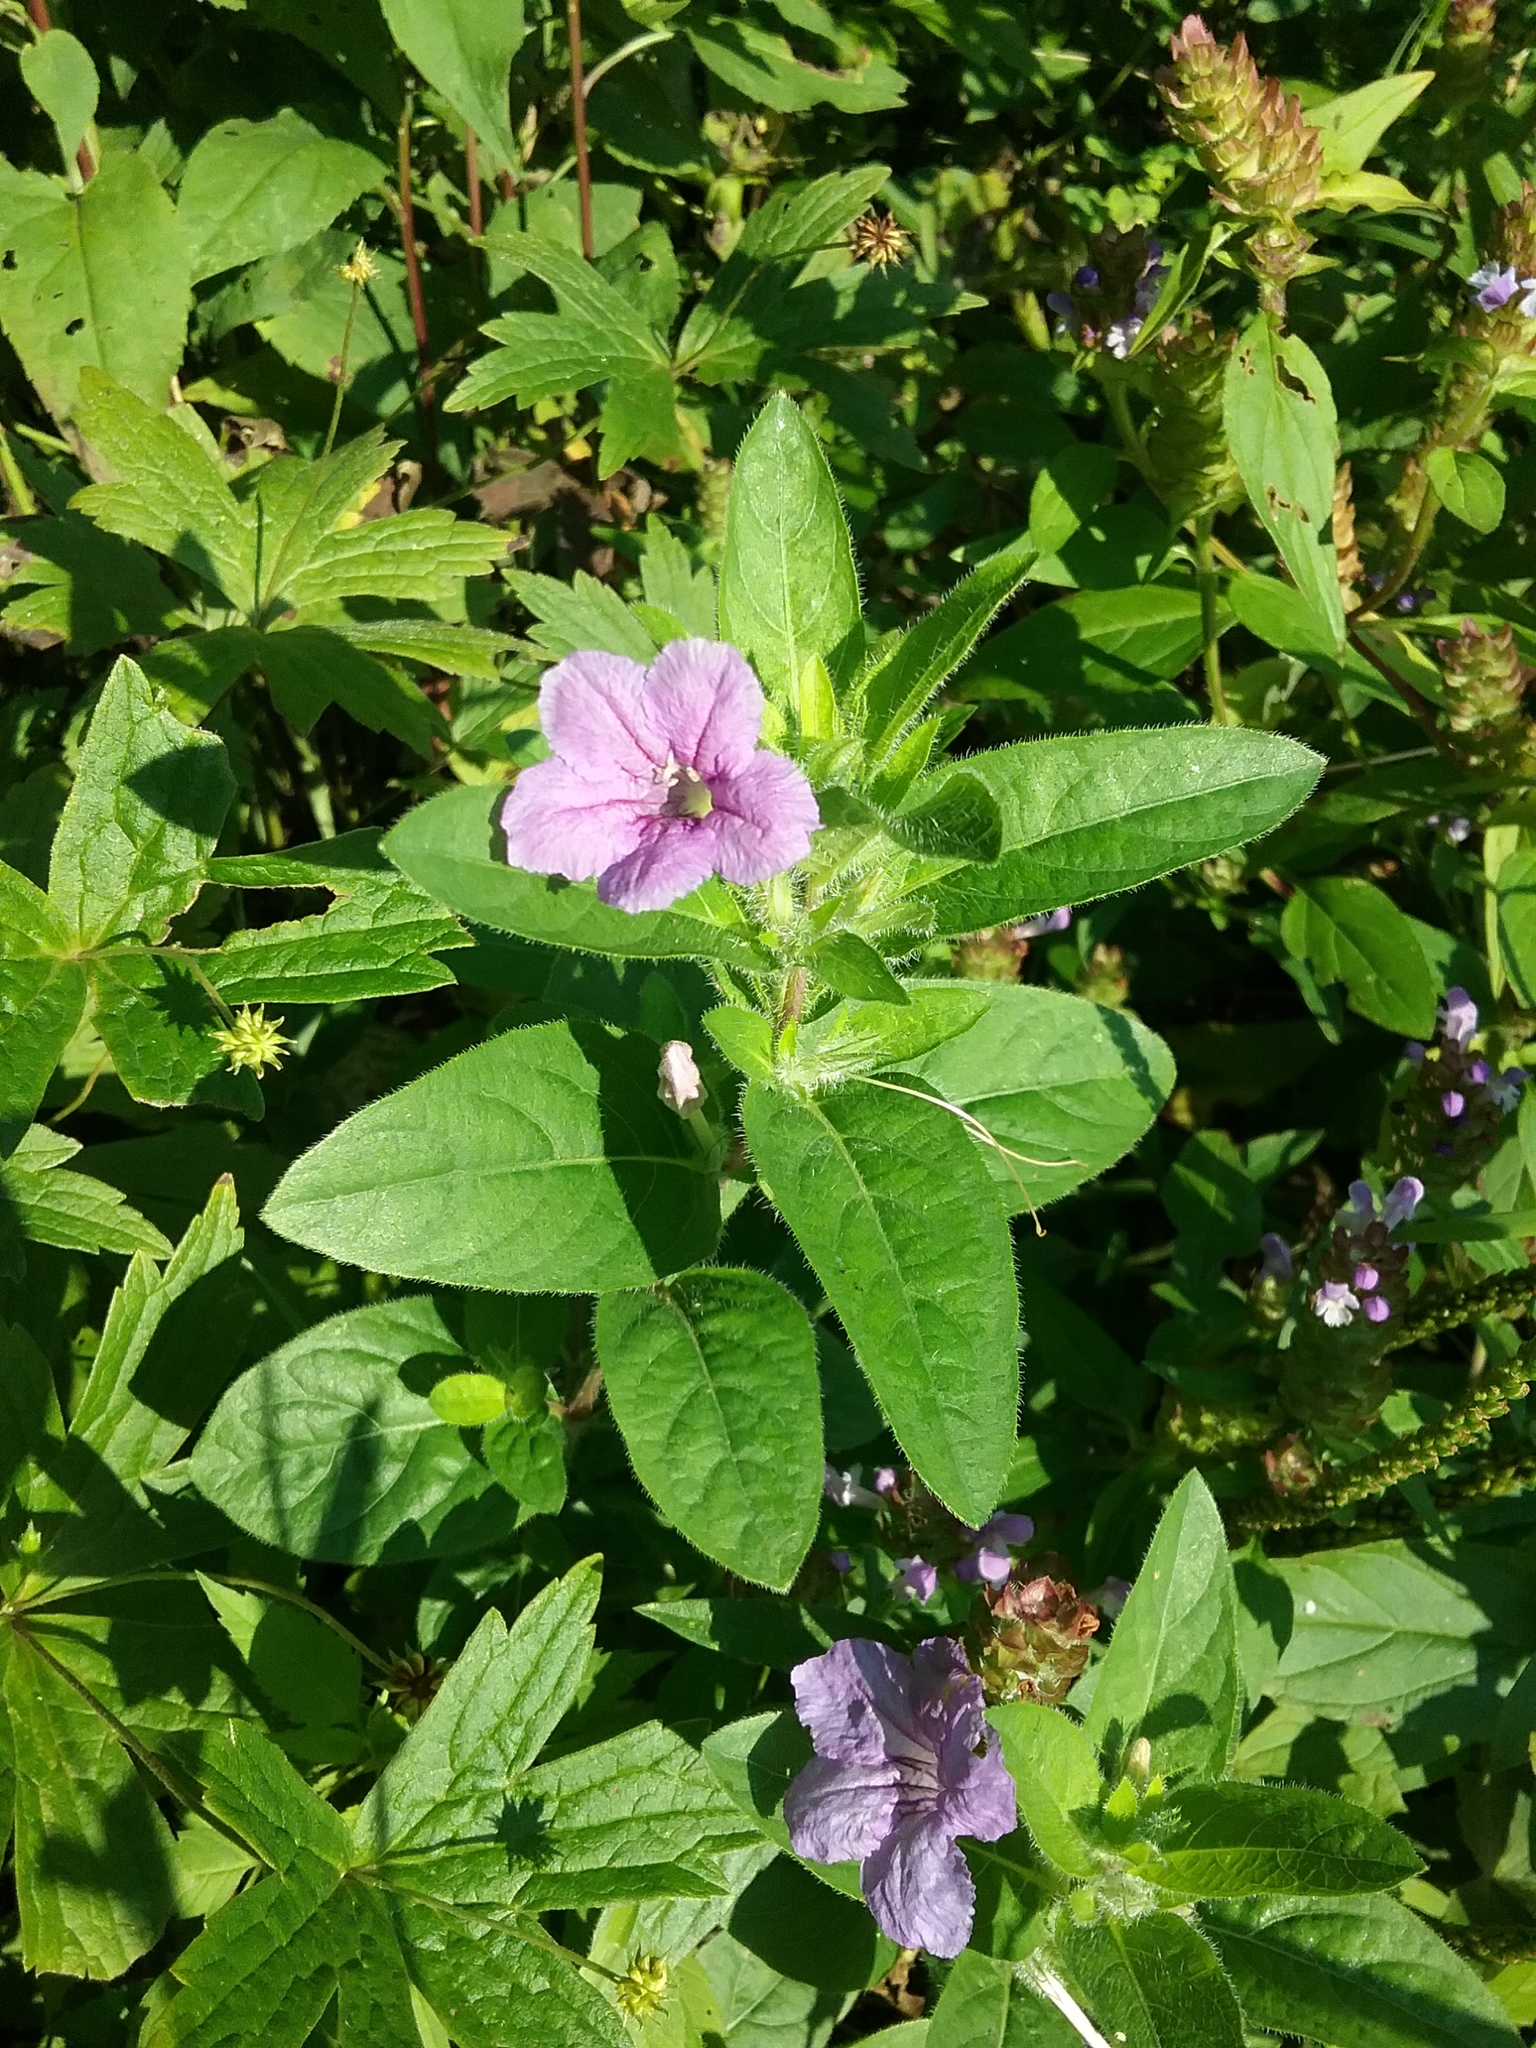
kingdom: Plantae
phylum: Tracheophyta
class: Magnoliopsida
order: Lamiales
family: Acanthaceae
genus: Ruellia
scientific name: Ruellia humilis
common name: Fringe-leaf ruellia
